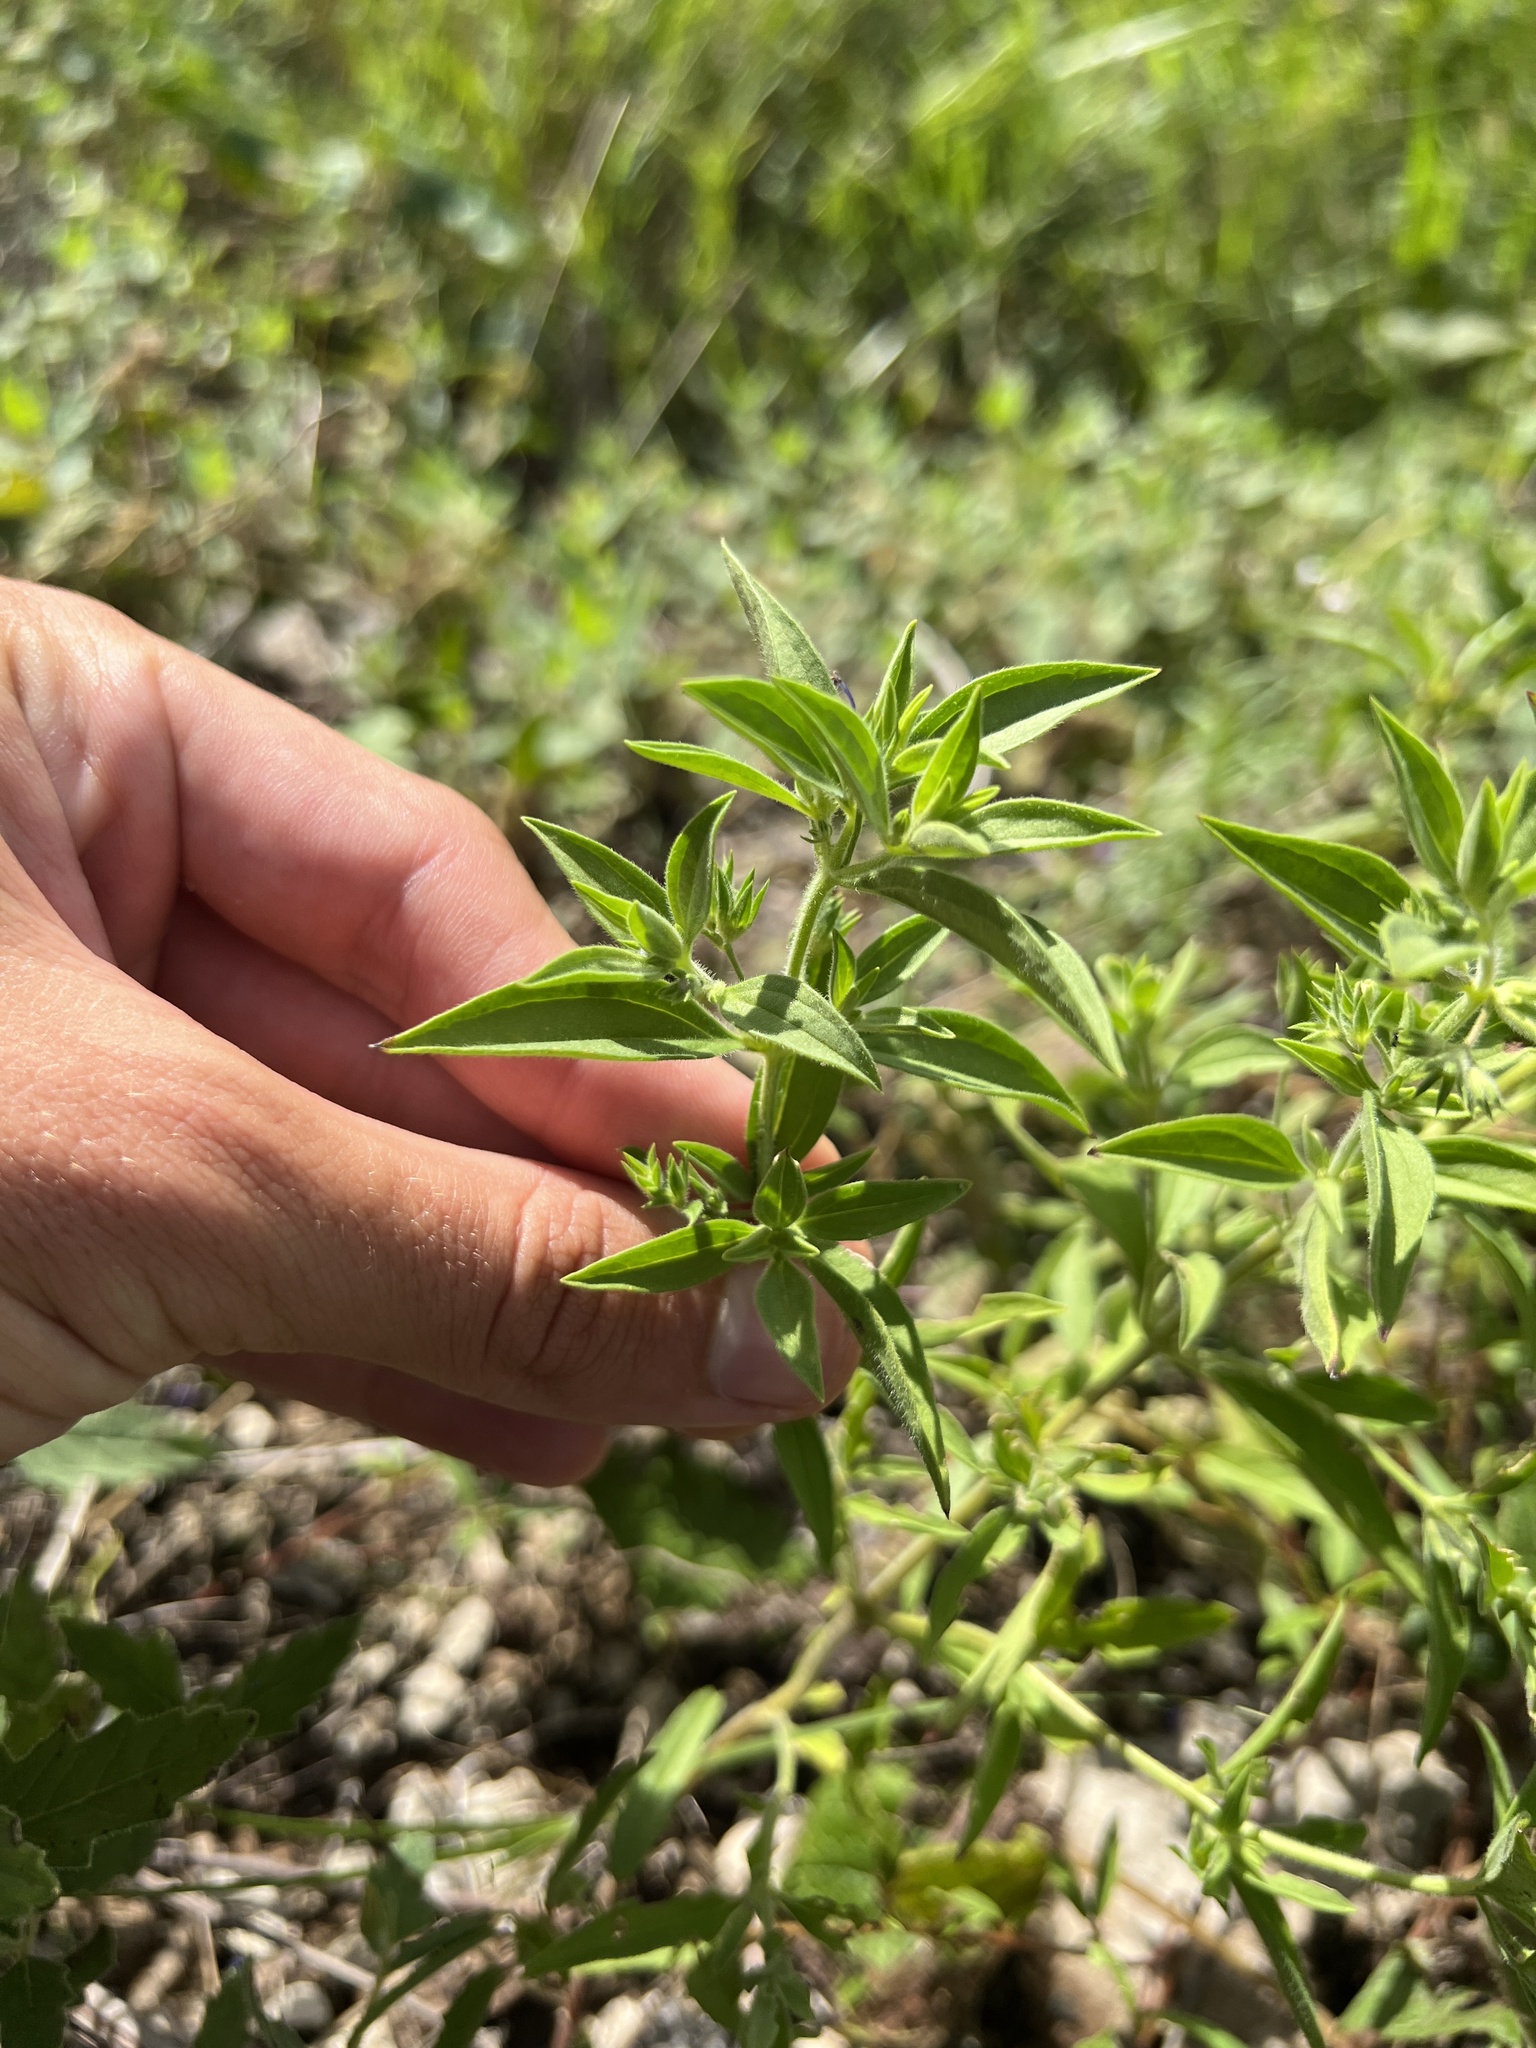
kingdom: Plantae
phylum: Tracheophyta
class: Magnoliopsida
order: Lamiales
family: Lamiaceae
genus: Trichostema
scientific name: Trichostema brachiatum
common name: False pennyroyal
